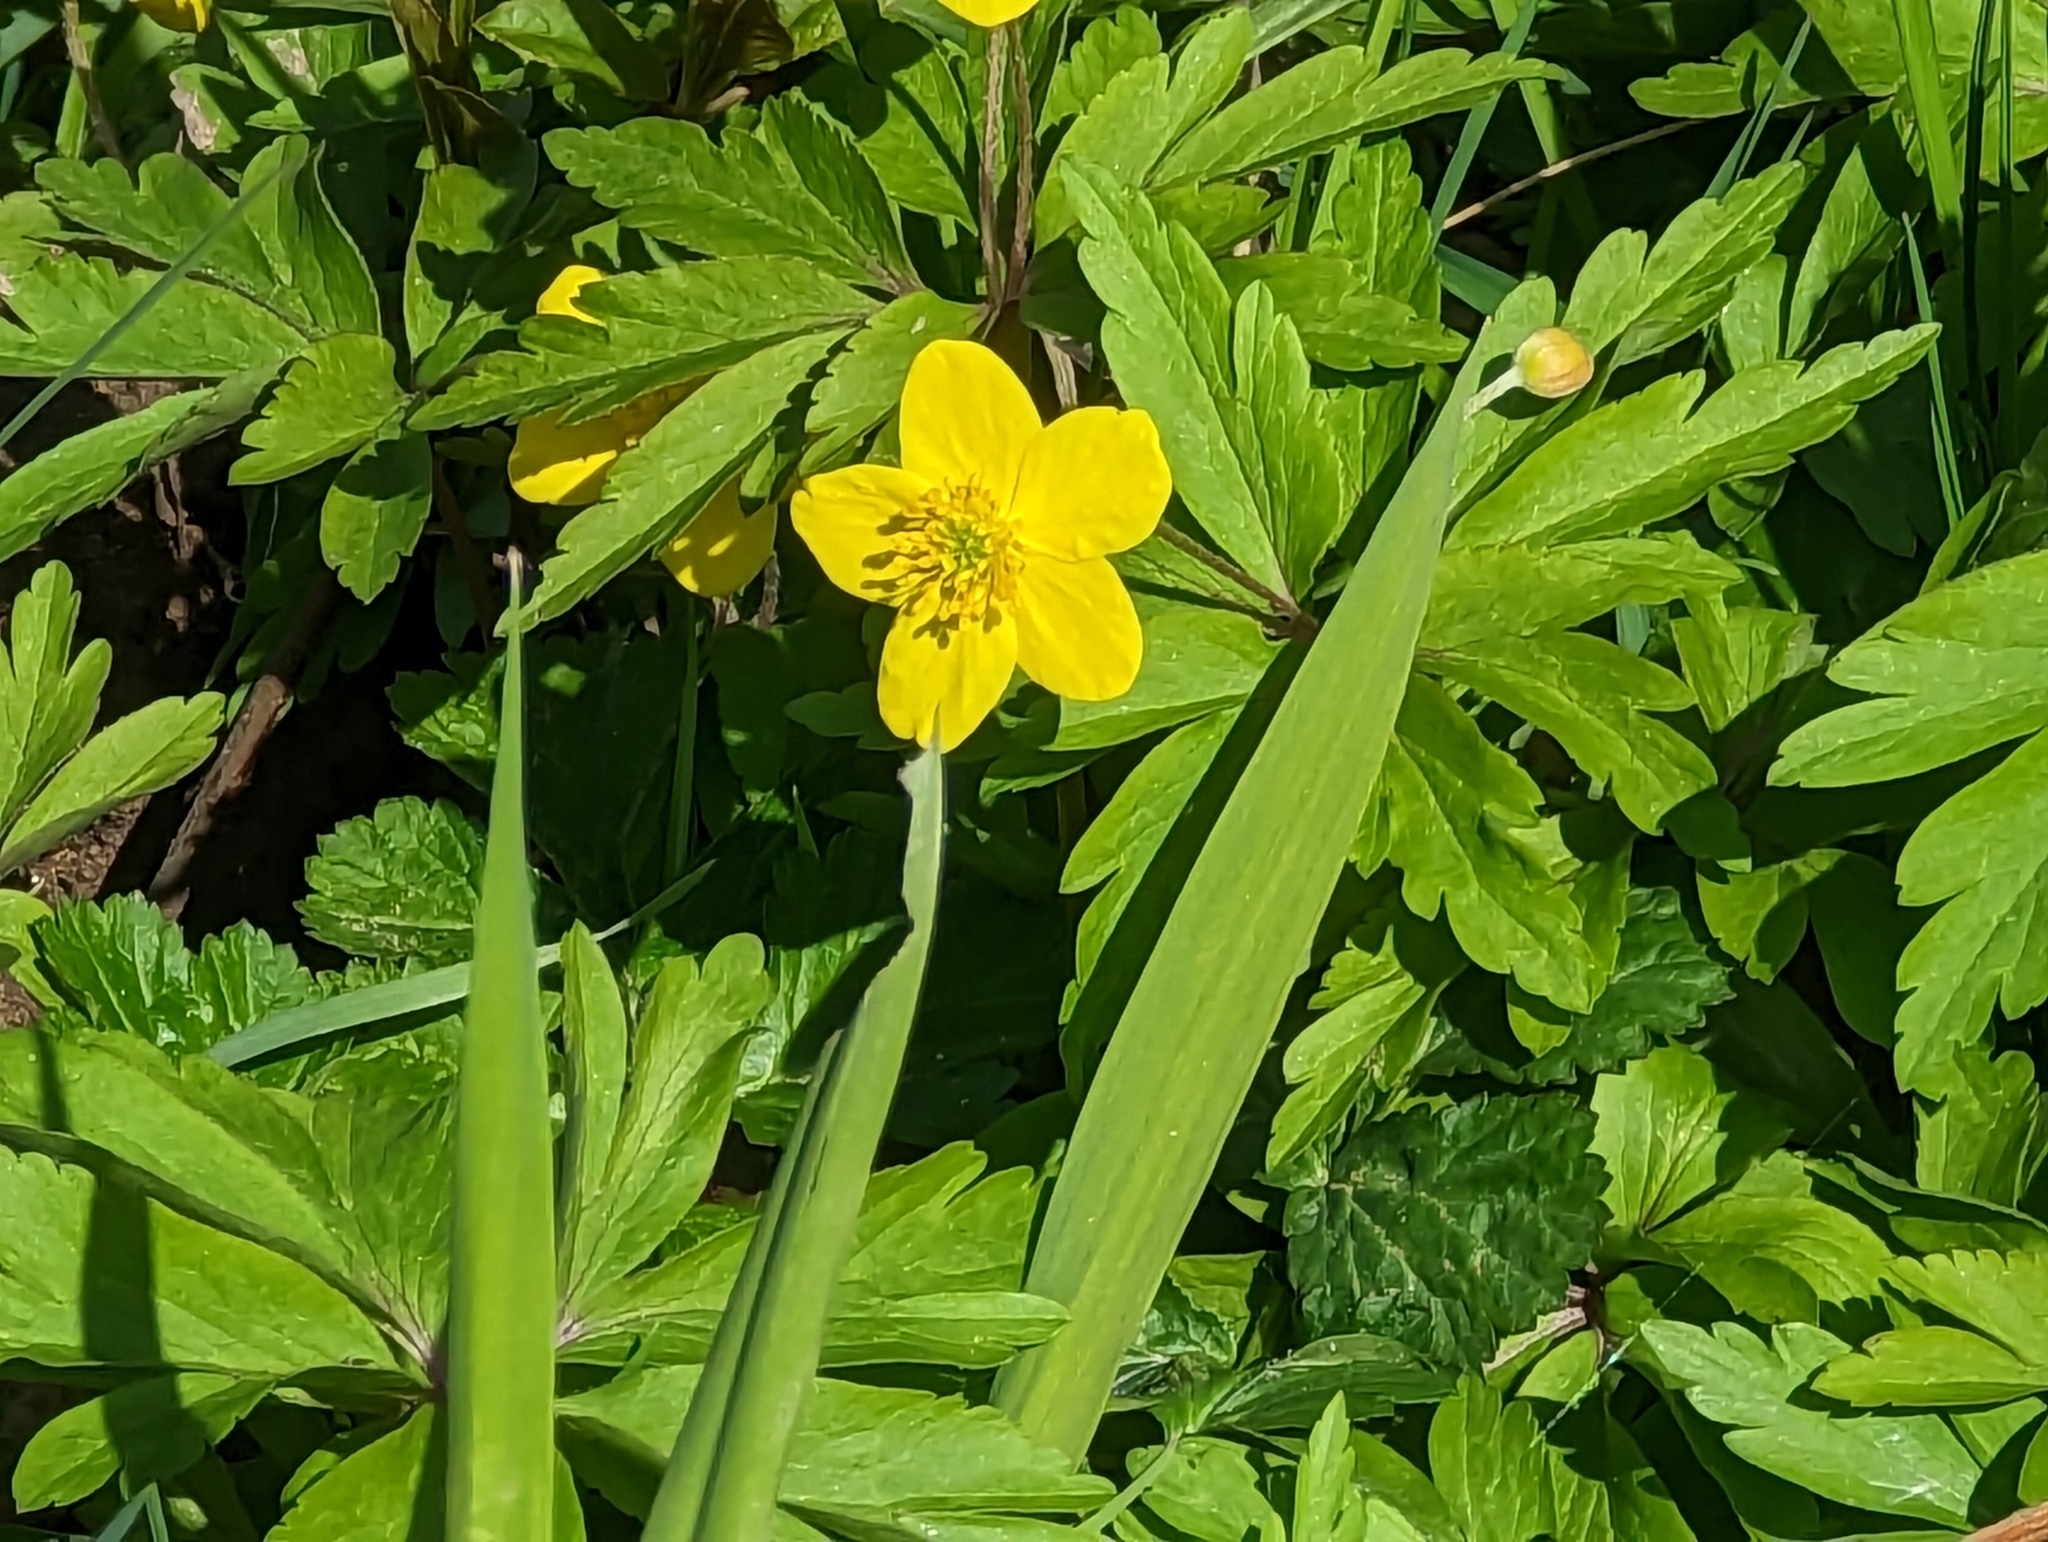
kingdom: Plantae
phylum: Tracheophyta
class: Magnoliopsida
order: Ranunculales
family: Ranunculaceae
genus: Anemone
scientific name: Anemone ranunculoides
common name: Yellow anemone
